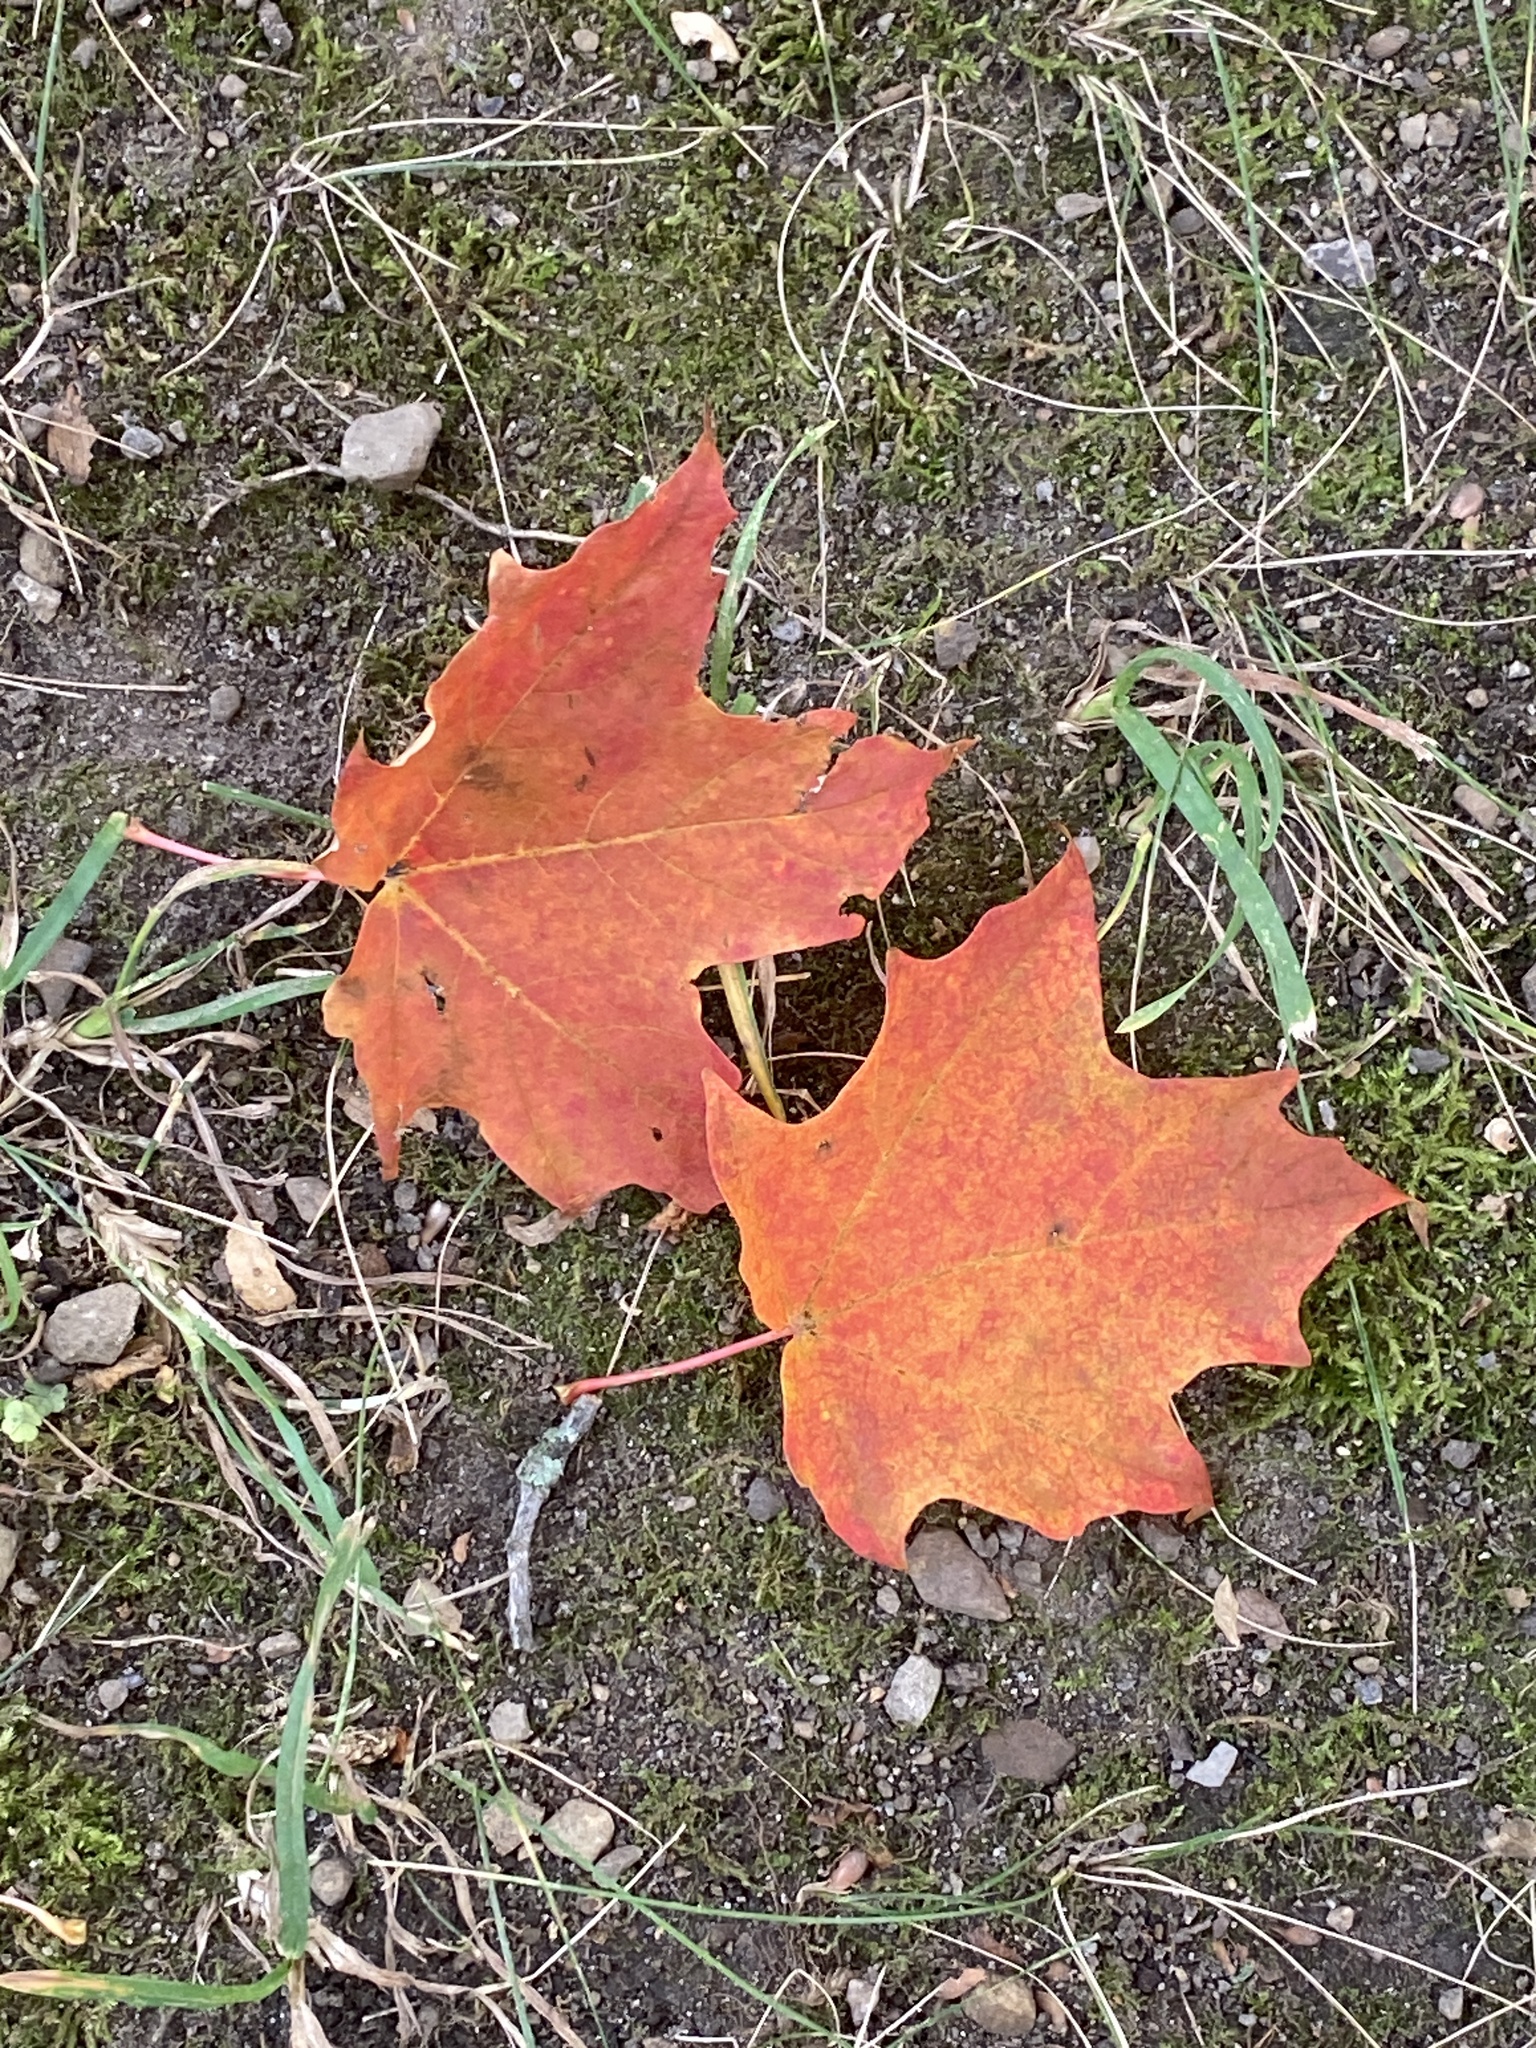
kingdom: Plantae
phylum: Tracheophyta
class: Magnoliopsida
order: Sapindales
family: Sapindaceae
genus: Acer
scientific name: Acer saccharum
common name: Sugar maple
